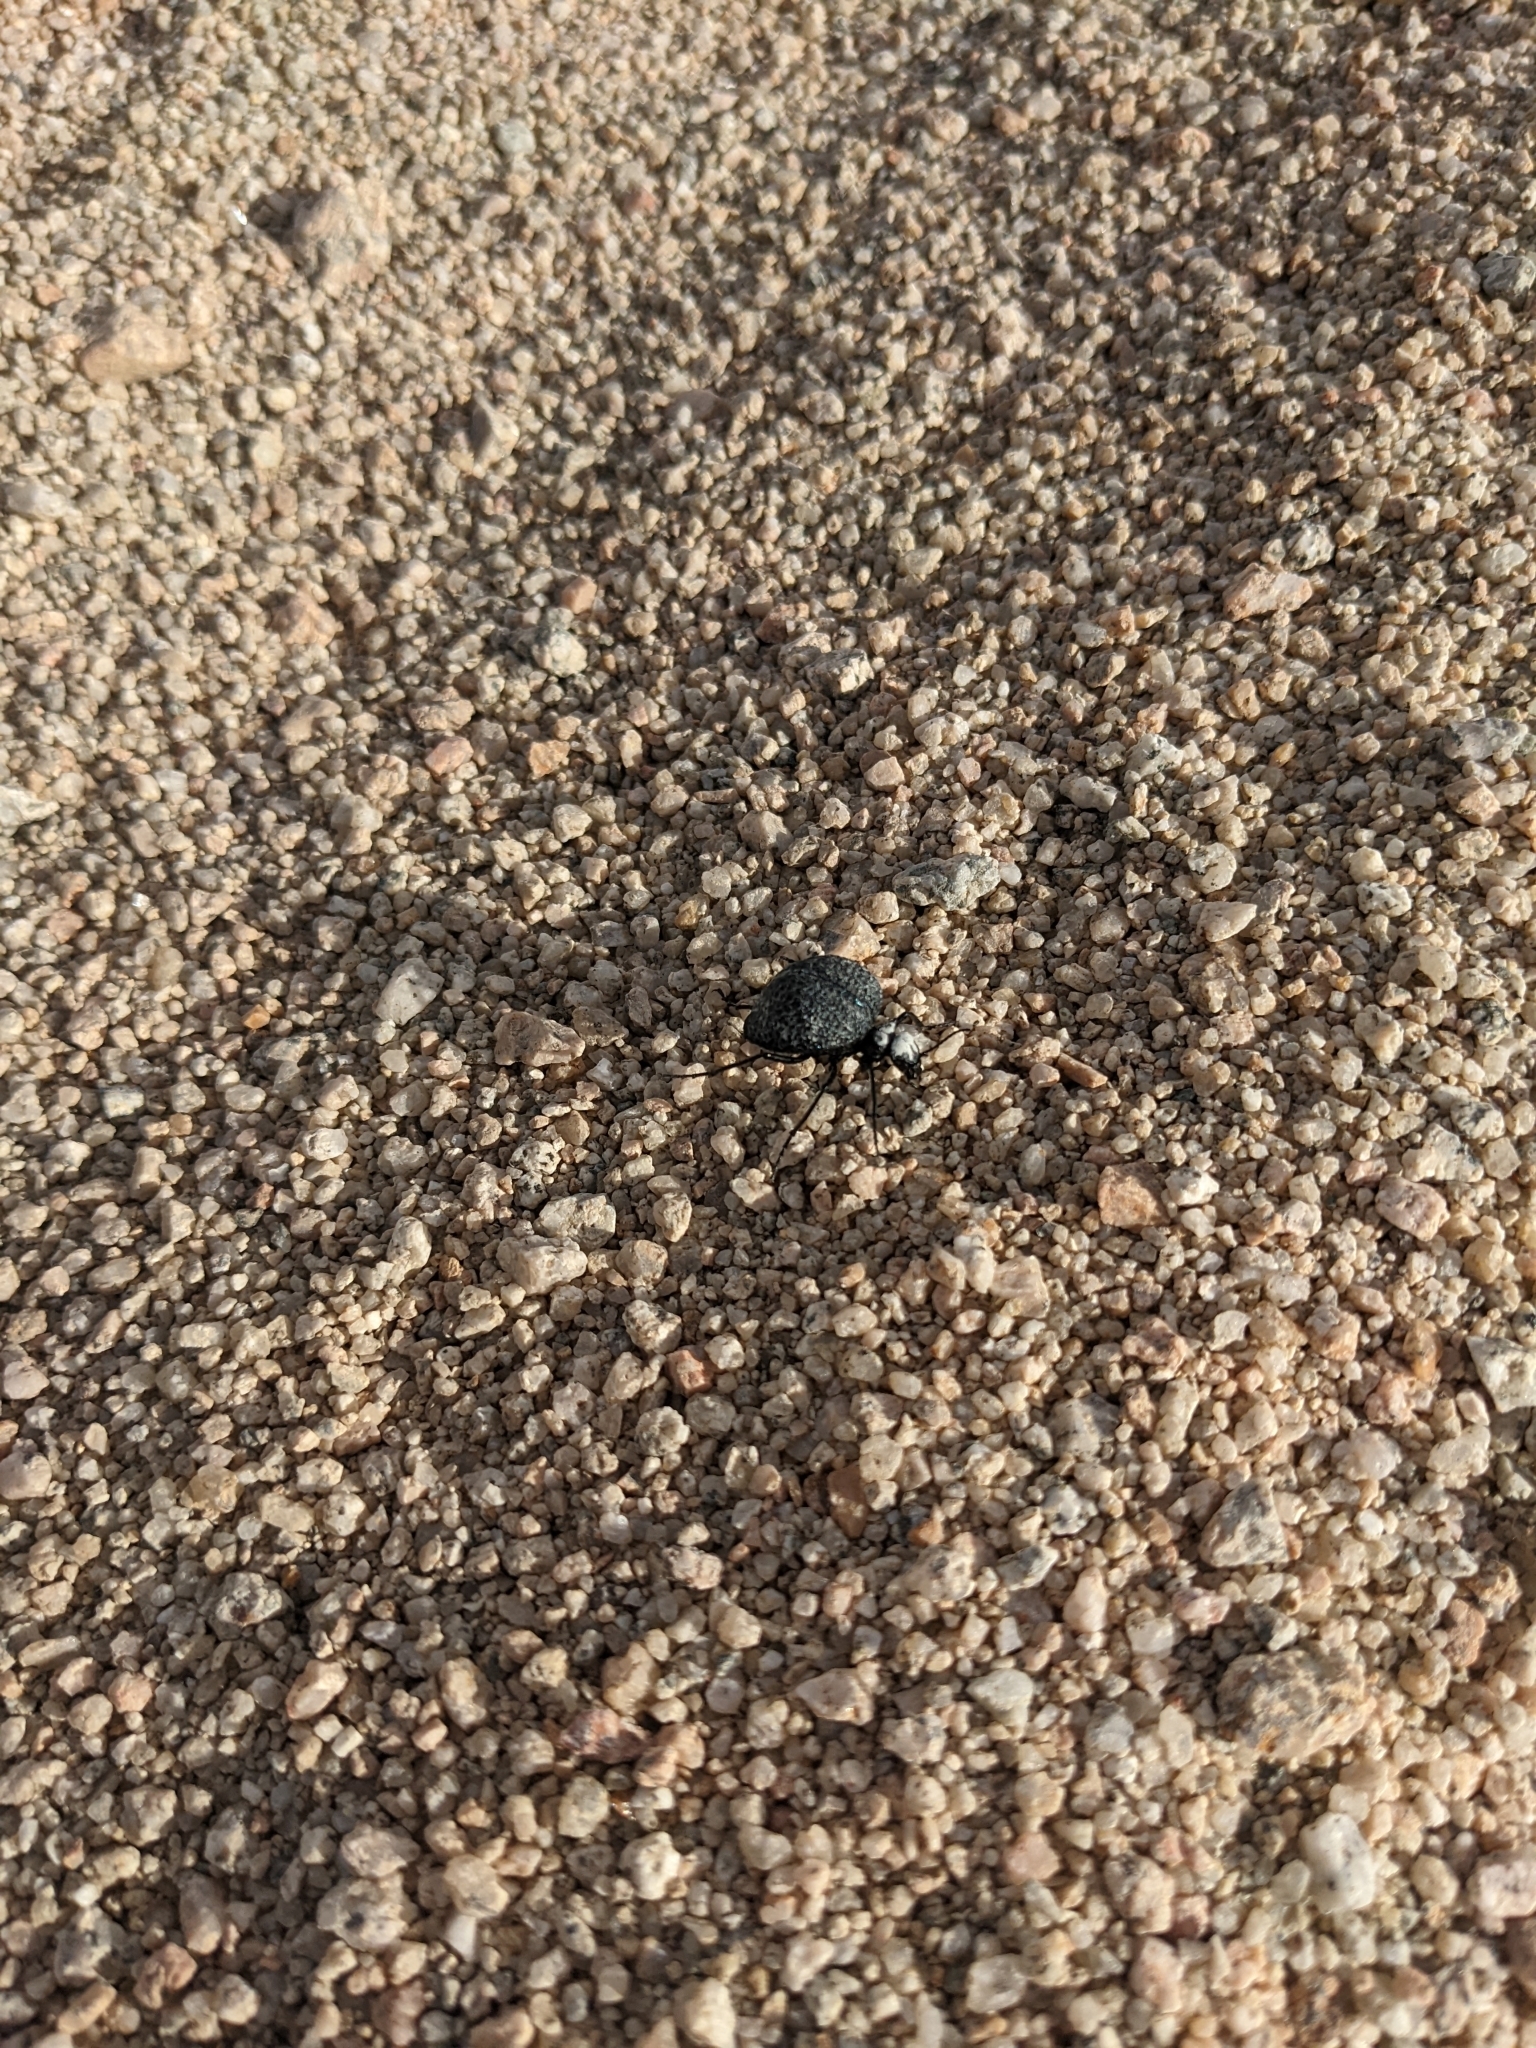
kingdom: Animalia
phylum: Arthropoda
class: Insecta
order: Coleoptera
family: Meloidae
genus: Cysteodemus
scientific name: Cysteodemus armatus
